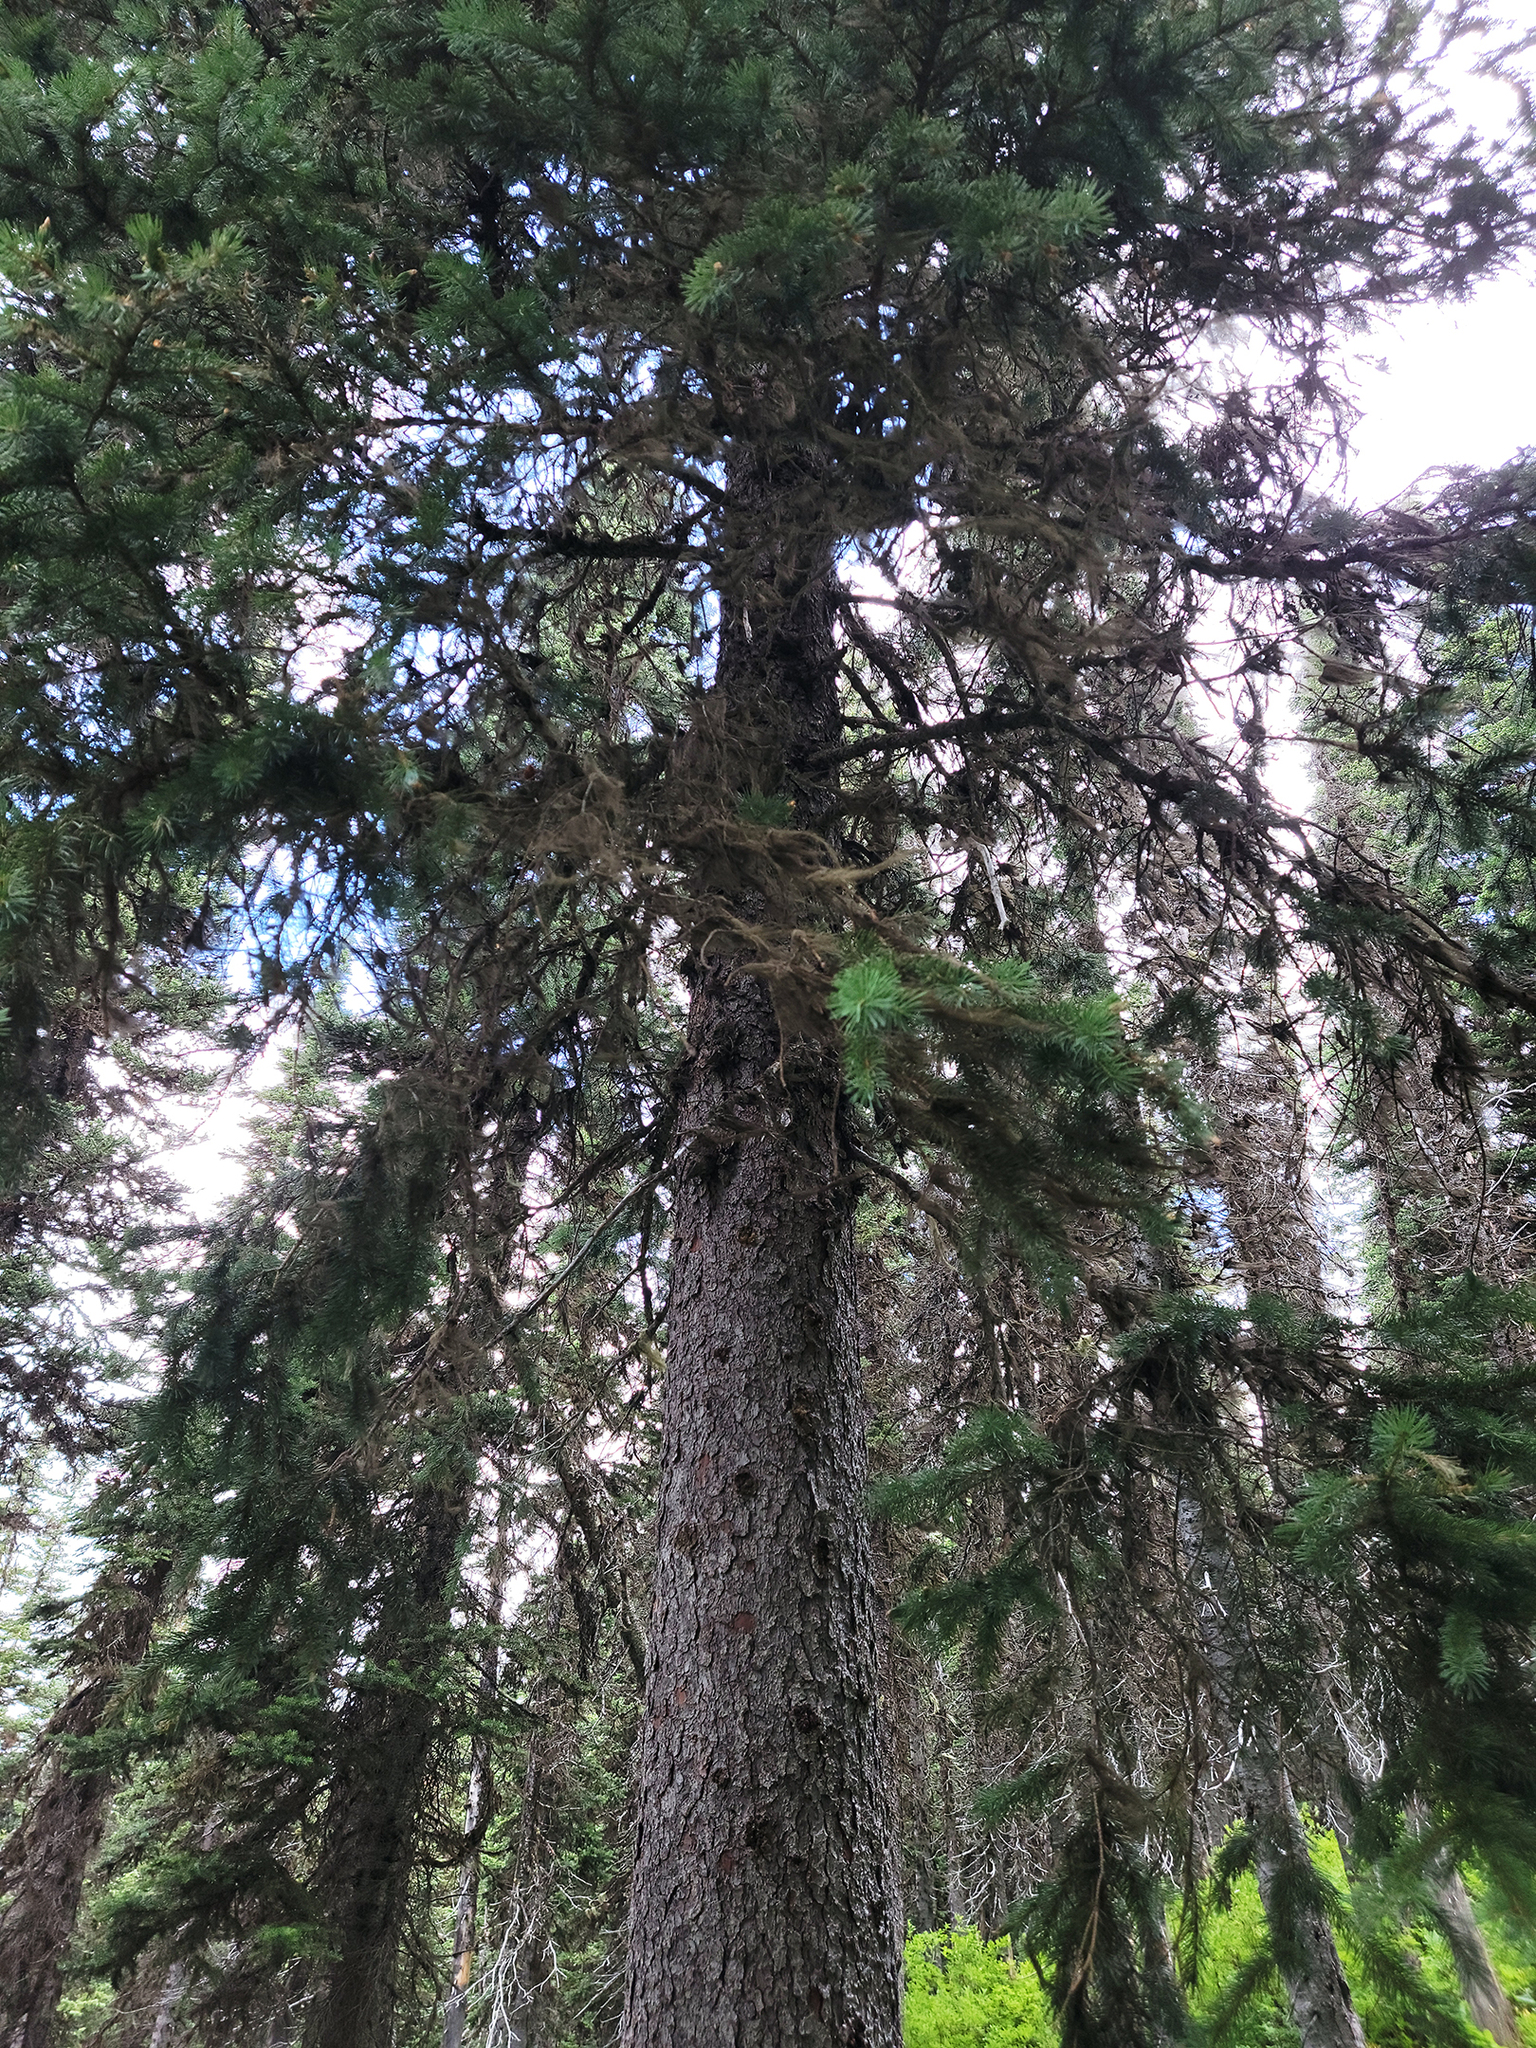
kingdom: Plantae
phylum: Tracheophyta
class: Pinopsida
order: Pinales
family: Pinaceae
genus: Pseudotsuga
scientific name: Pseudotsuga menziesii
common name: Douglas fir
